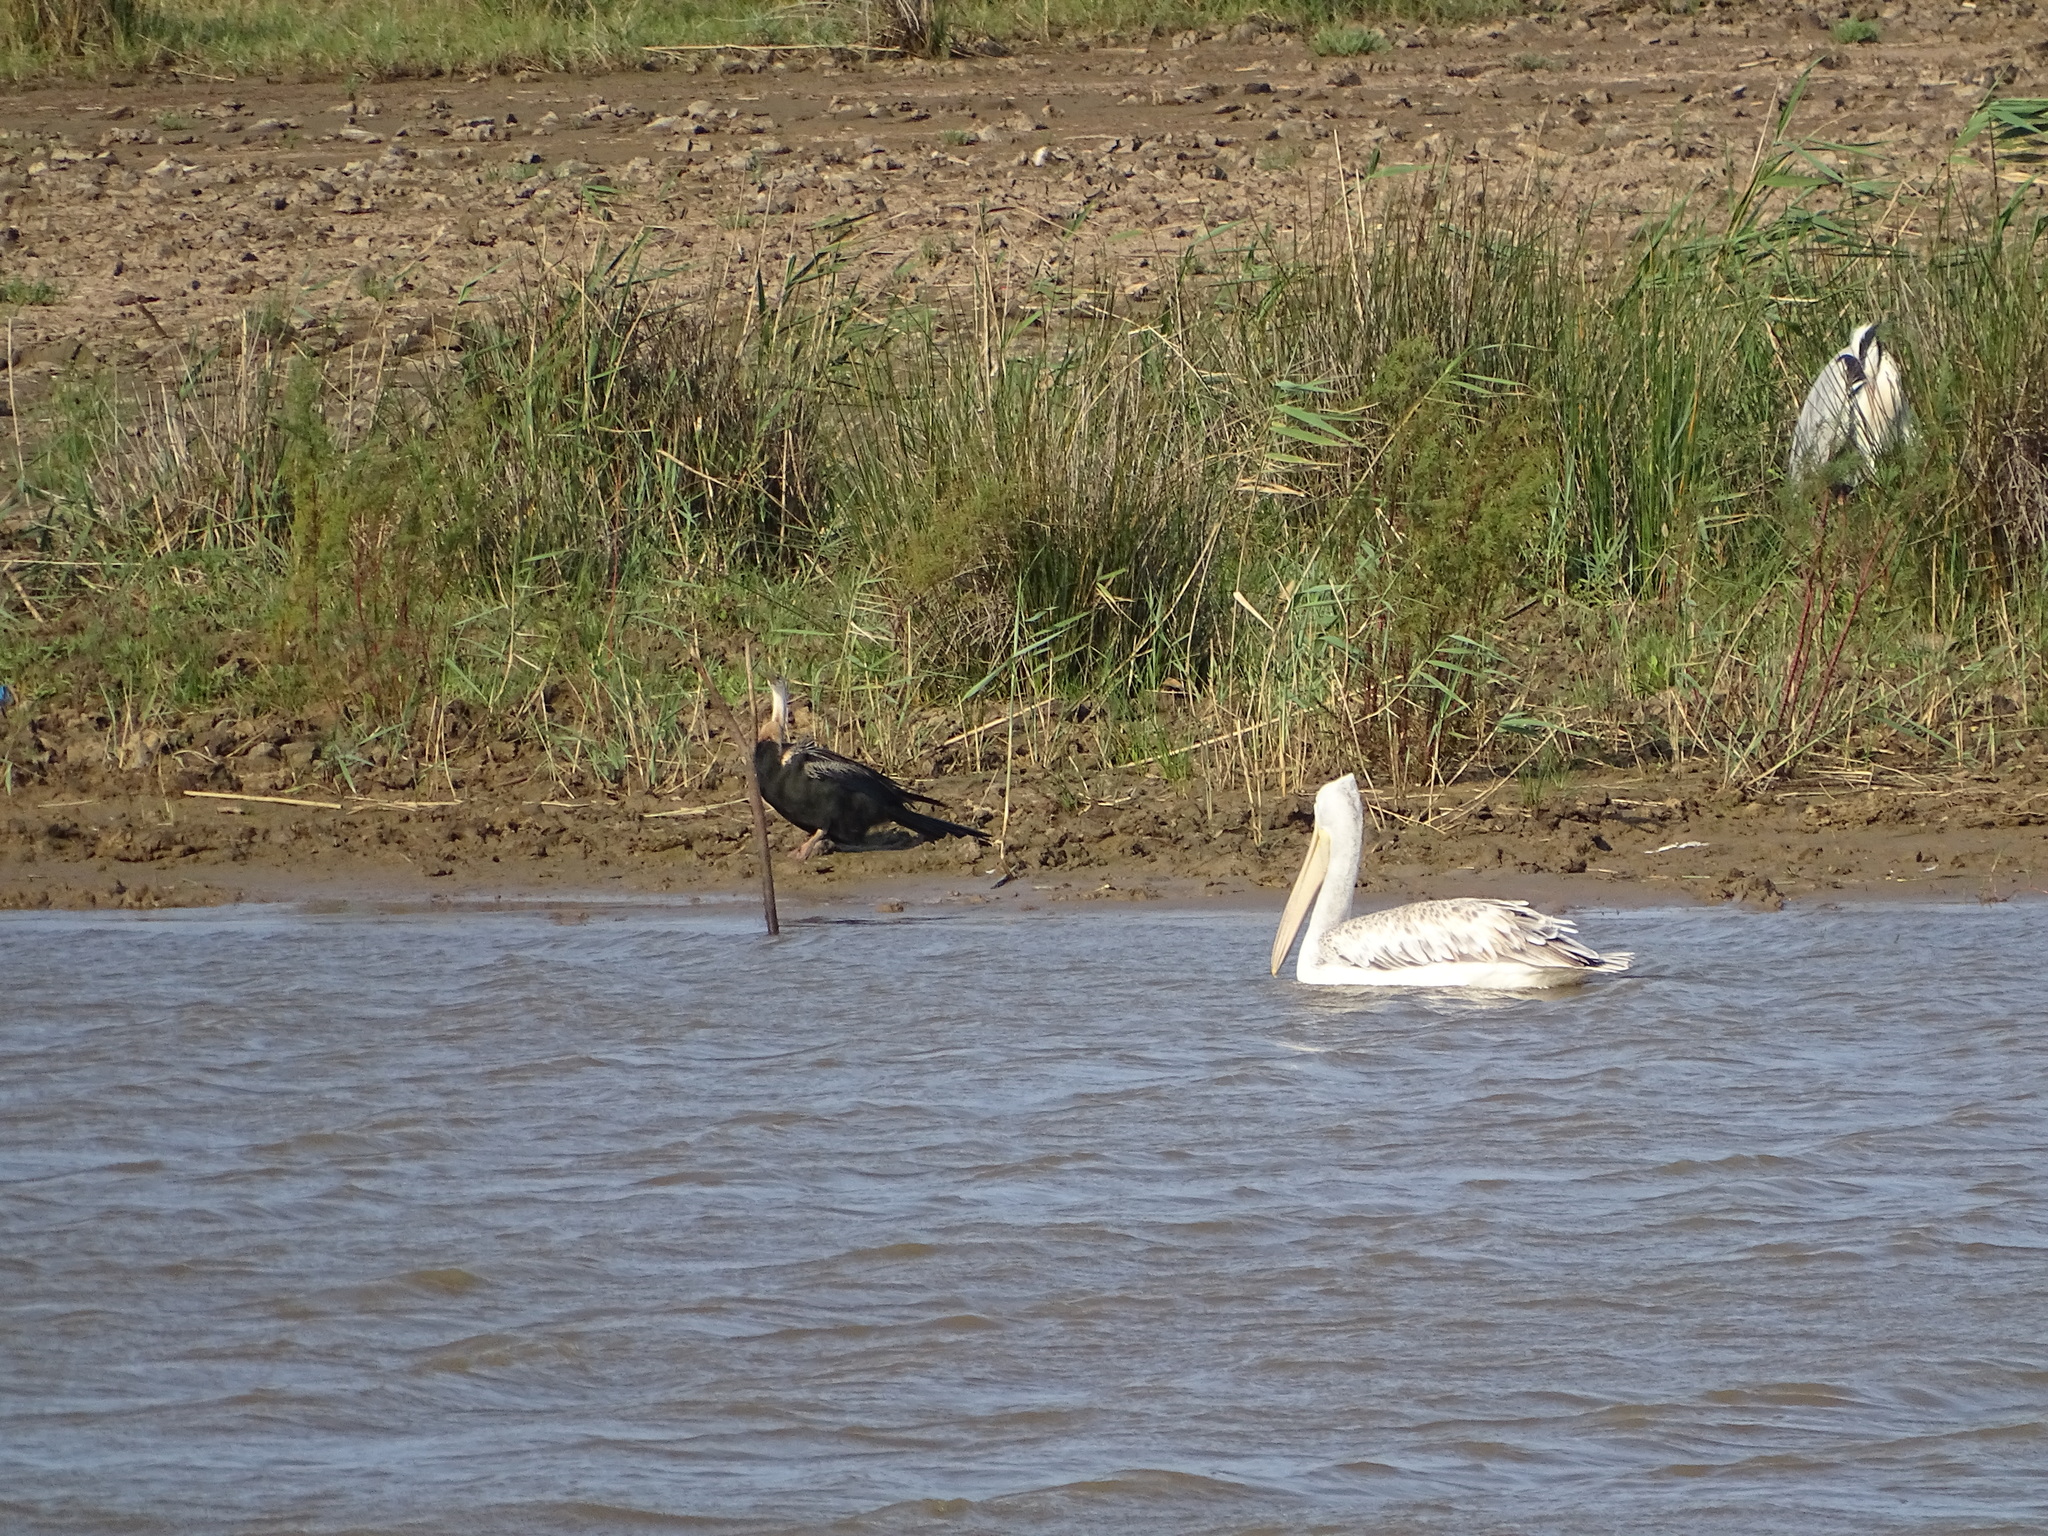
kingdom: Animalia
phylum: Chordata
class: Aves
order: Pelecaniformes
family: Pelecanidae
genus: Pelecanus
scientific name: Pelecanus rufescens
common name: Pink-backed pelican
